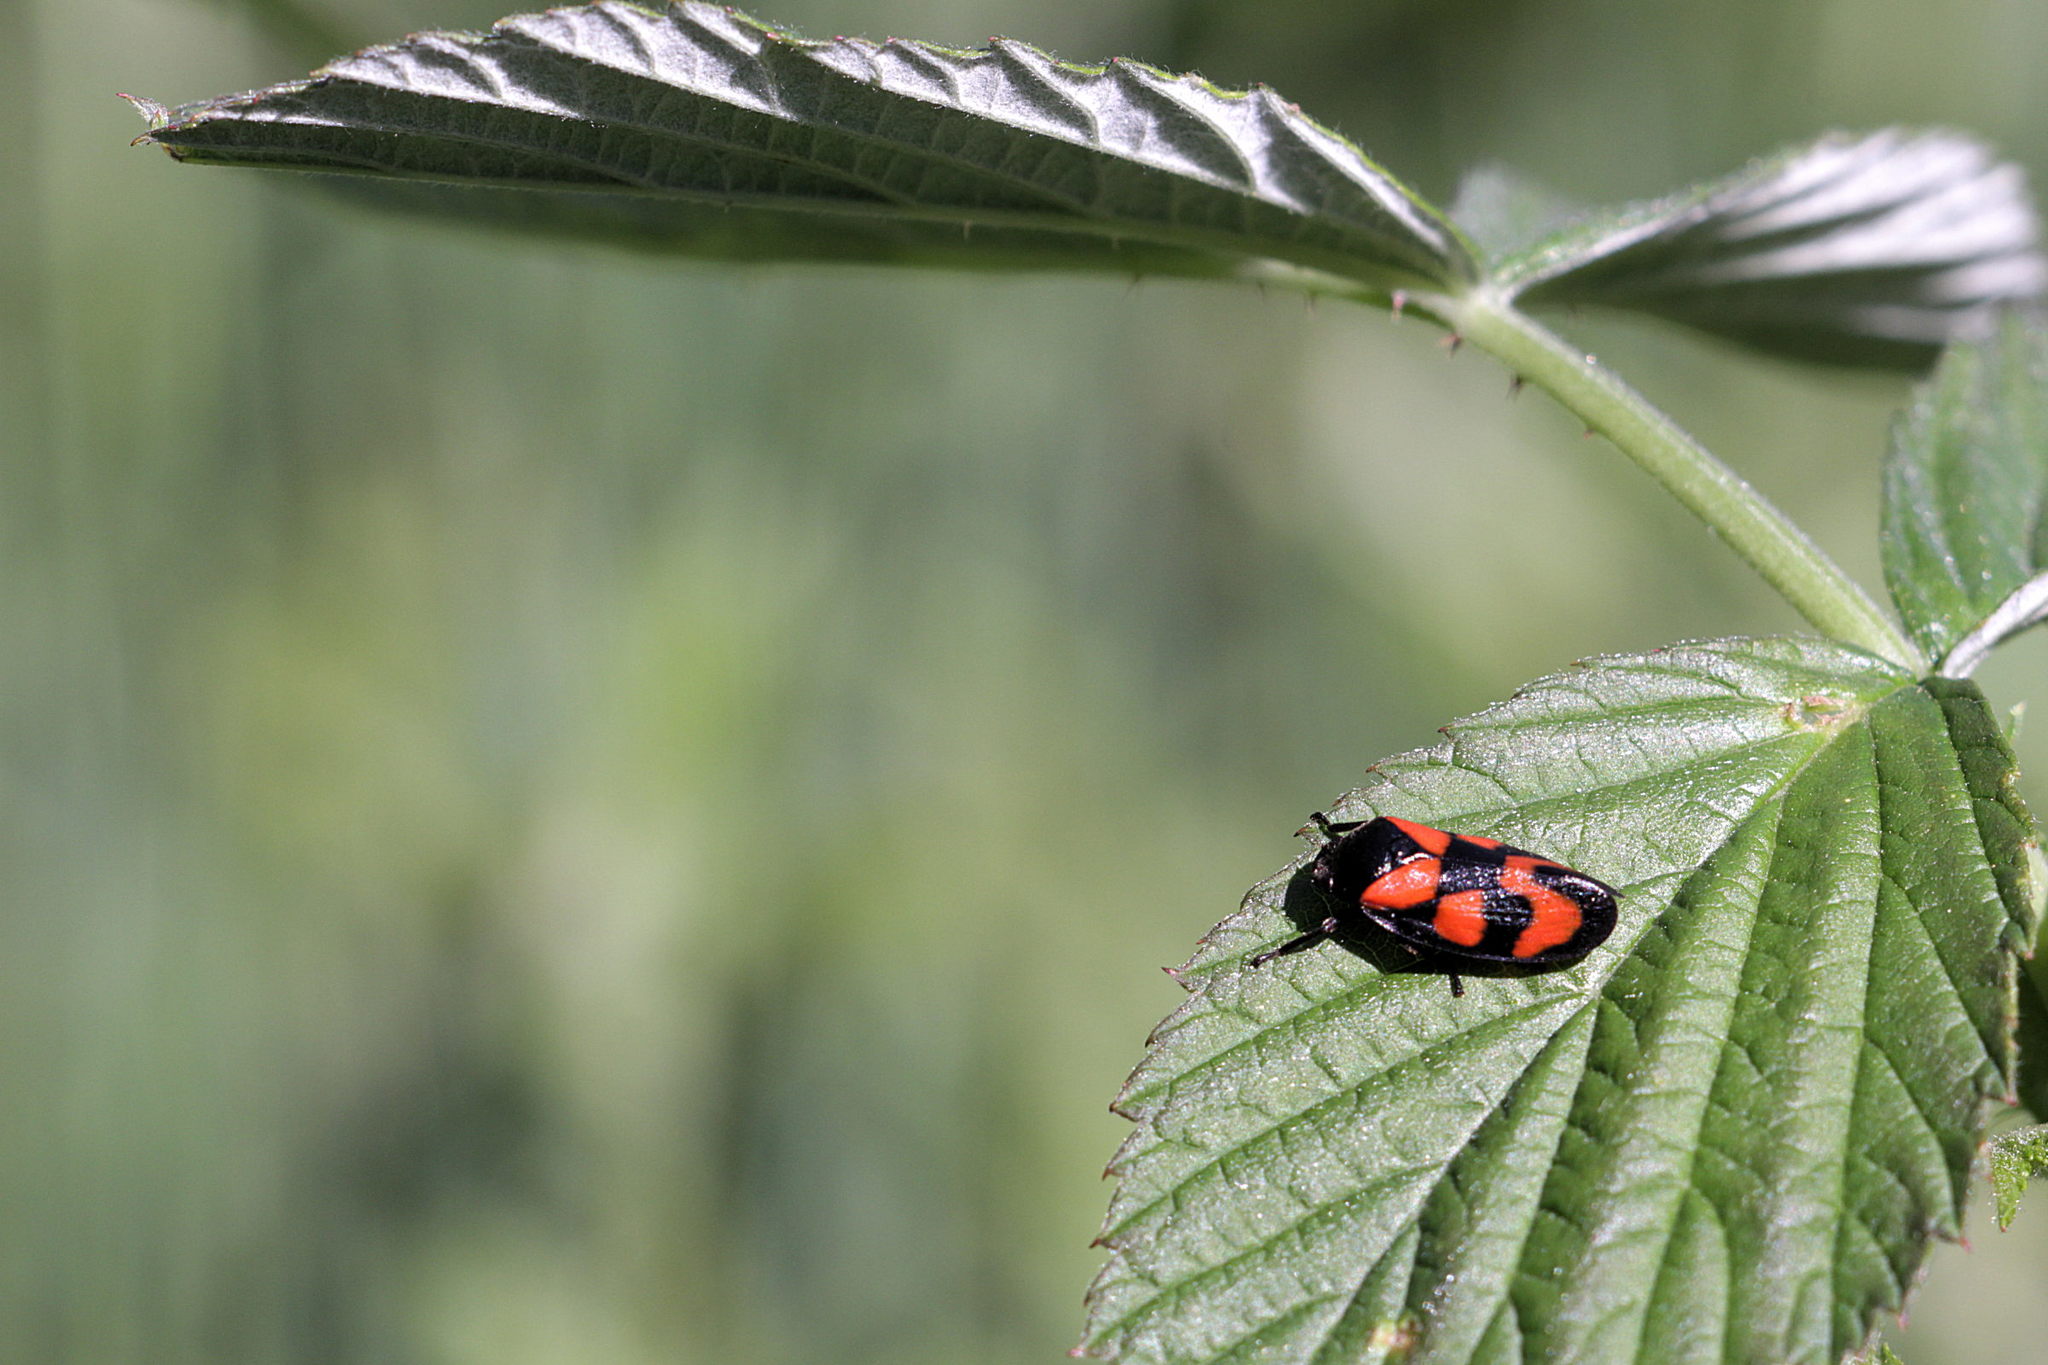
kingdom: Animalia
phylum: Arthropoda
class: Insecta
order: Hemiptera
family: Cercopidae
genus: Cercopis
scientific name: Cercopis vulnerata
